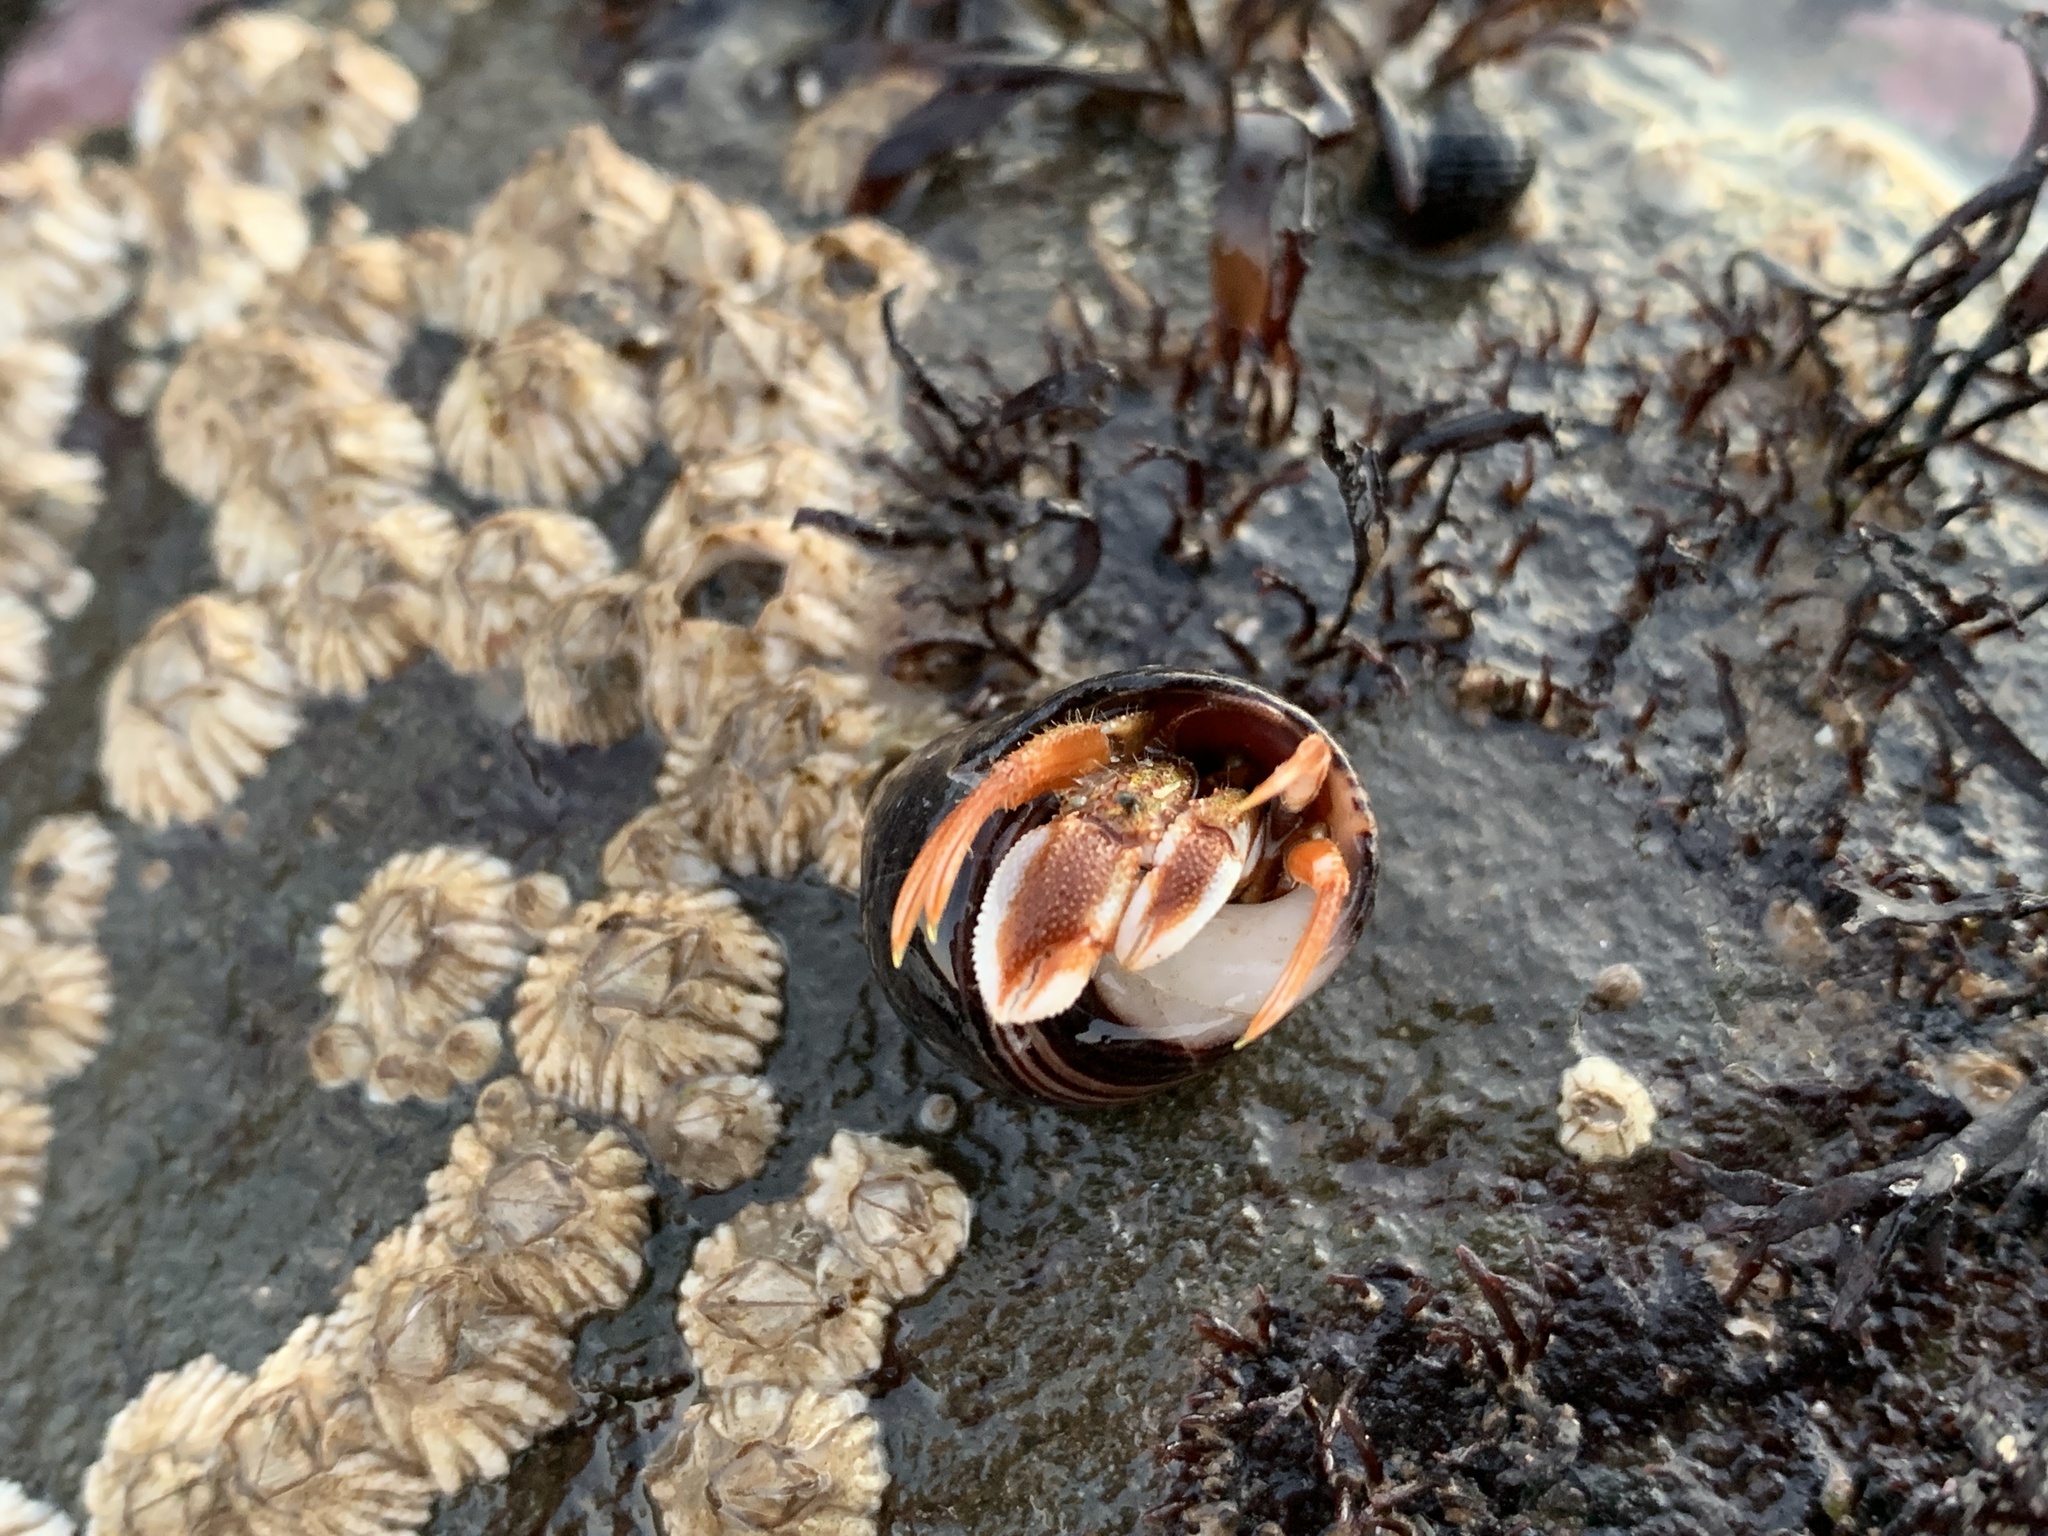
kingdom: Animalia
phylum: Arthropoda
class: Malacostraca
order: Decapoda
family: Paguridae
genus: Pagurus
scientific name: Pagurus acadianus
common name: Acadian hermit crab
